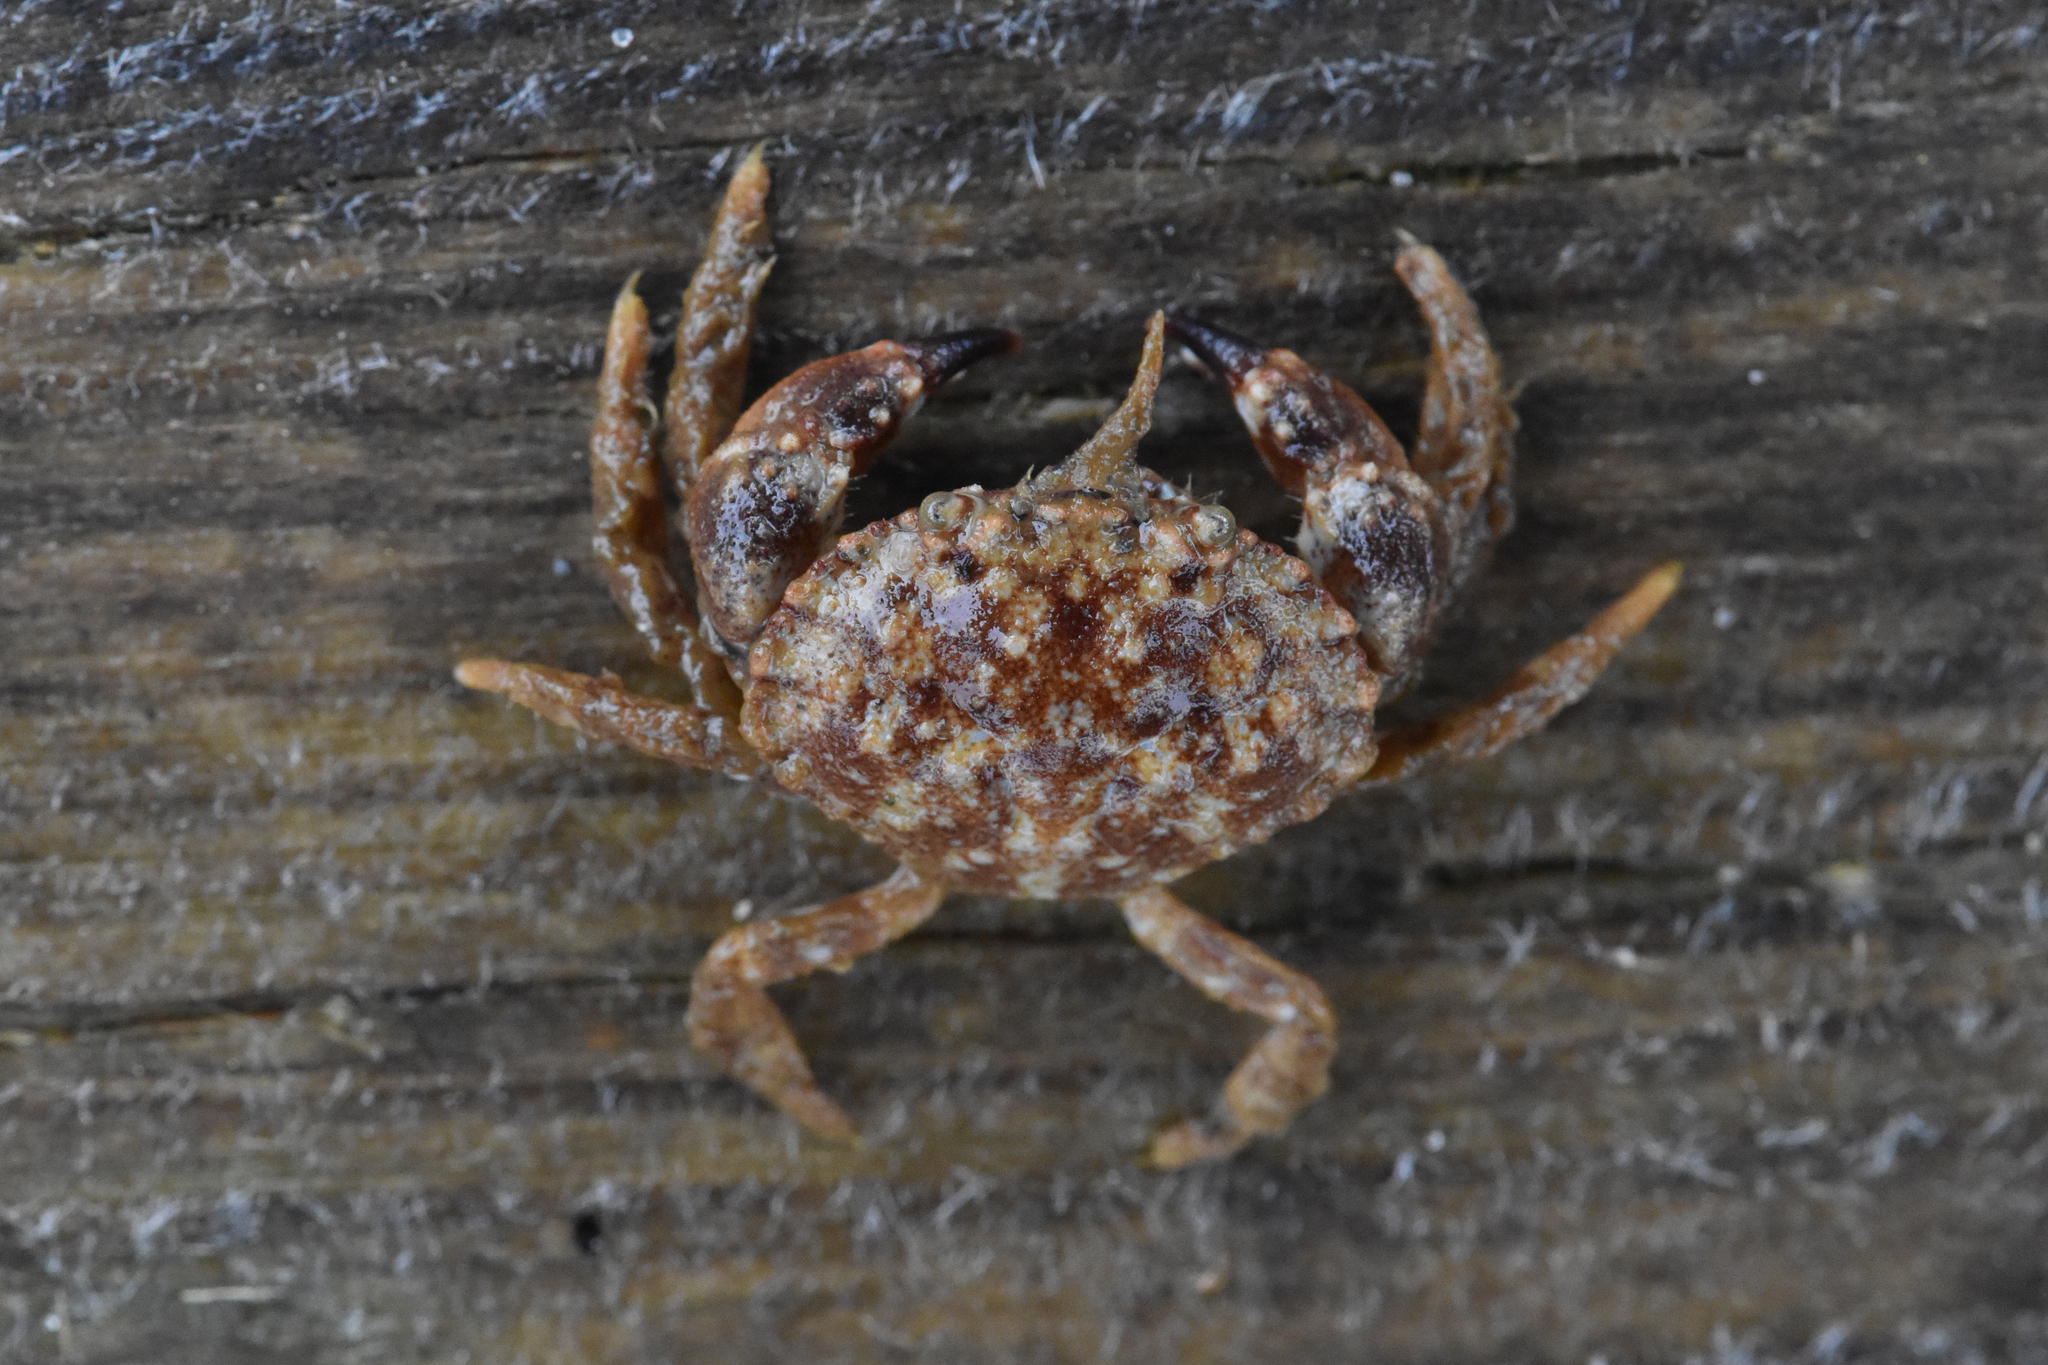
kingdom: Animalia
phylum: Arthropoda
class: Malacostraca
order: Decapoda
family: Cancridae
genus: Glebocarcinus
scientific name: Glebocarcinus oregonensis
